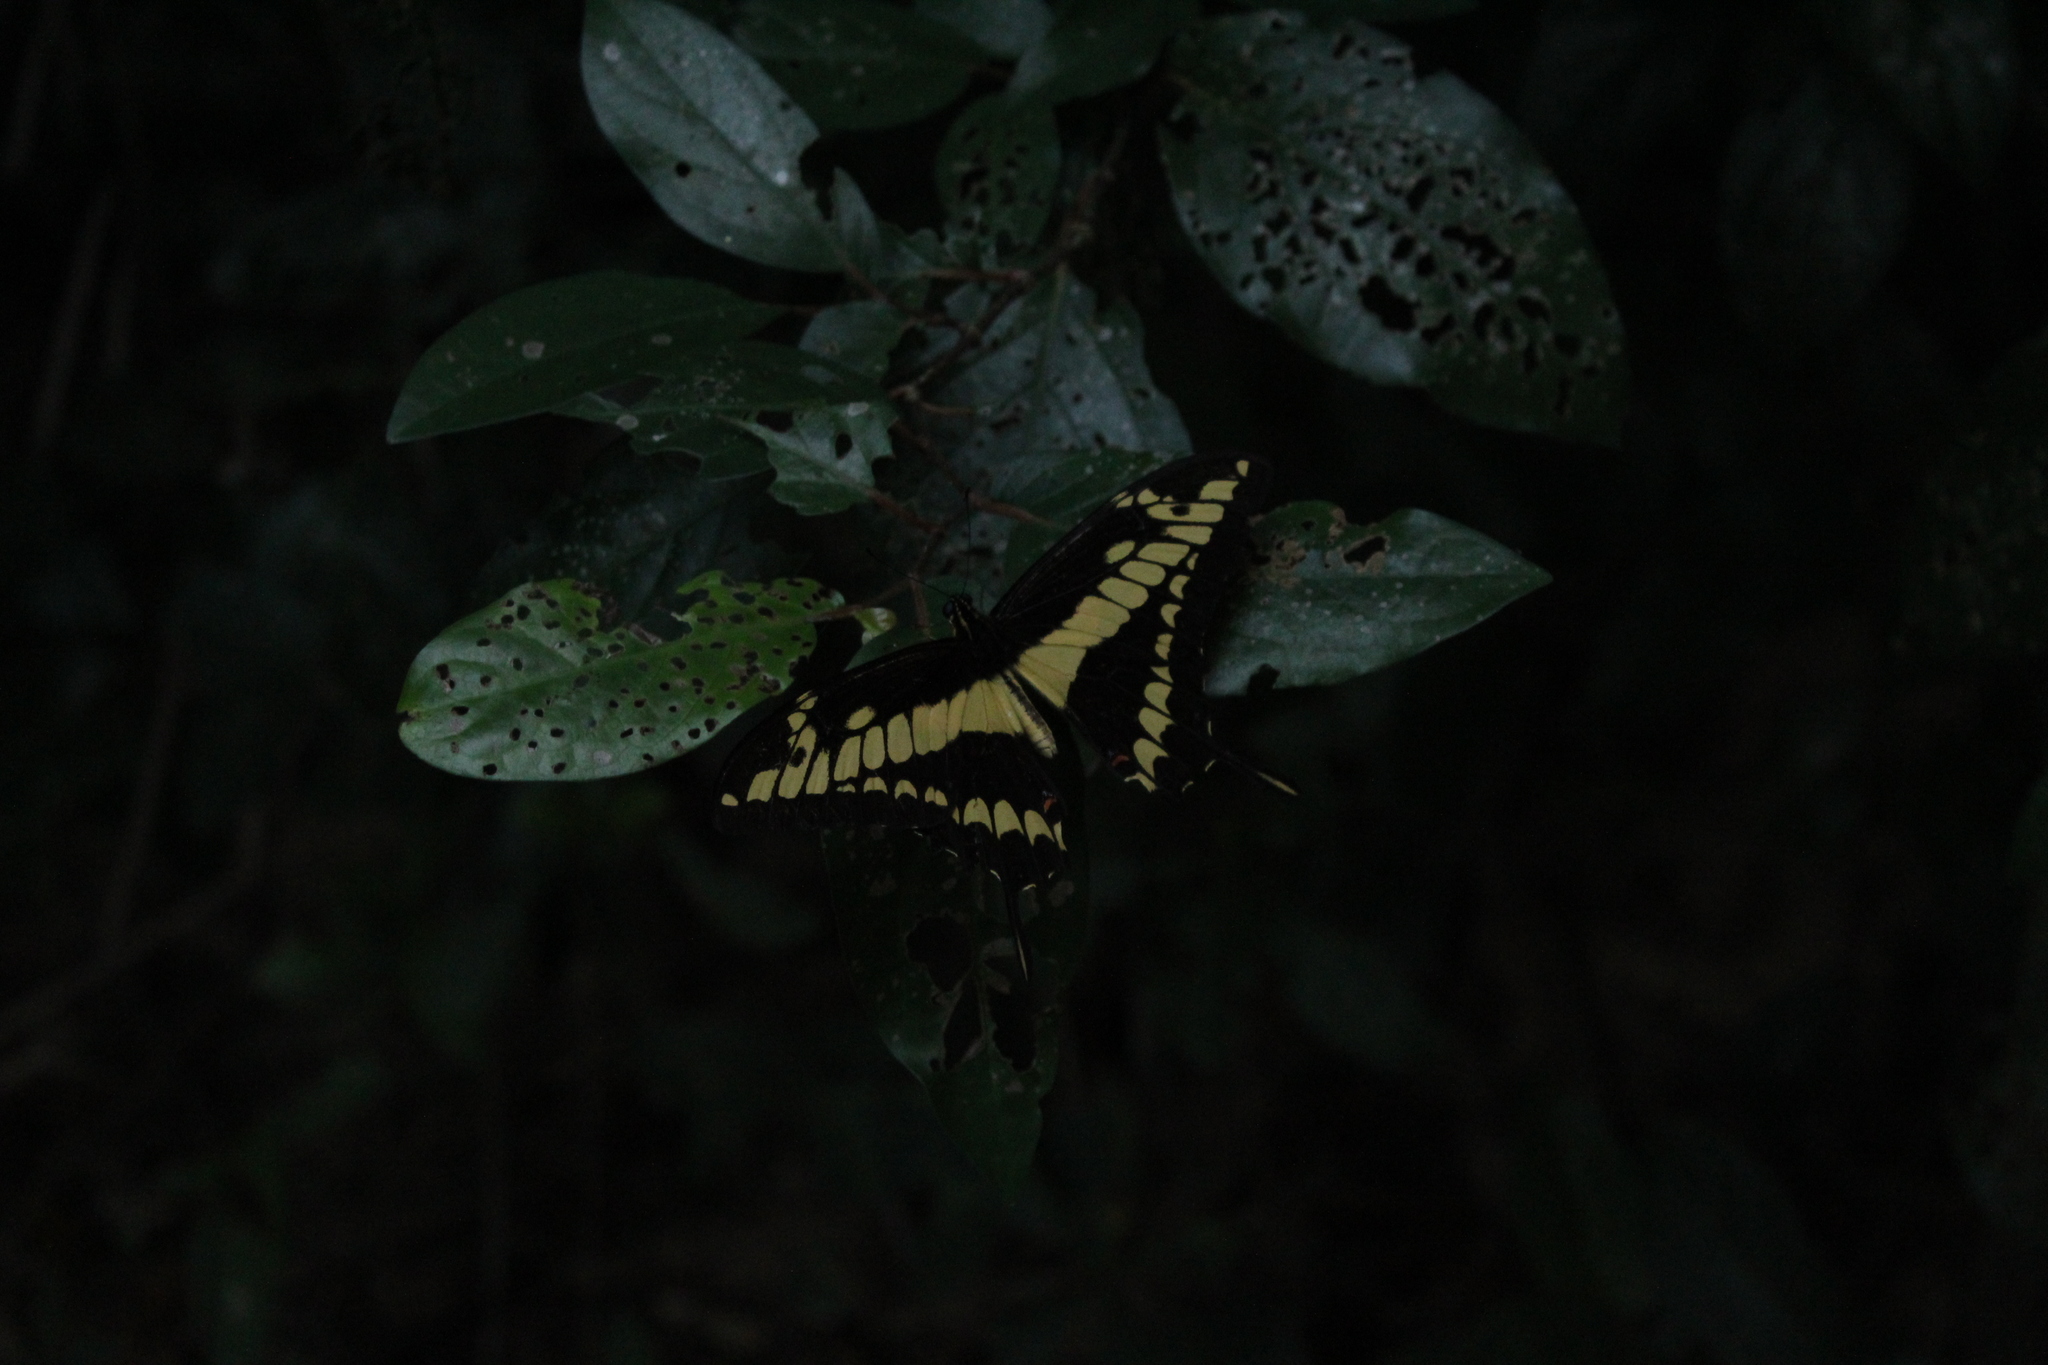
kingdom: Animalia
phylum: Arthropoda
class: Insecta
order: Lepidoptera
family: Papilionidae
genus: Papilio
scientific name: Papilio thoas
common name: King swallowtail
